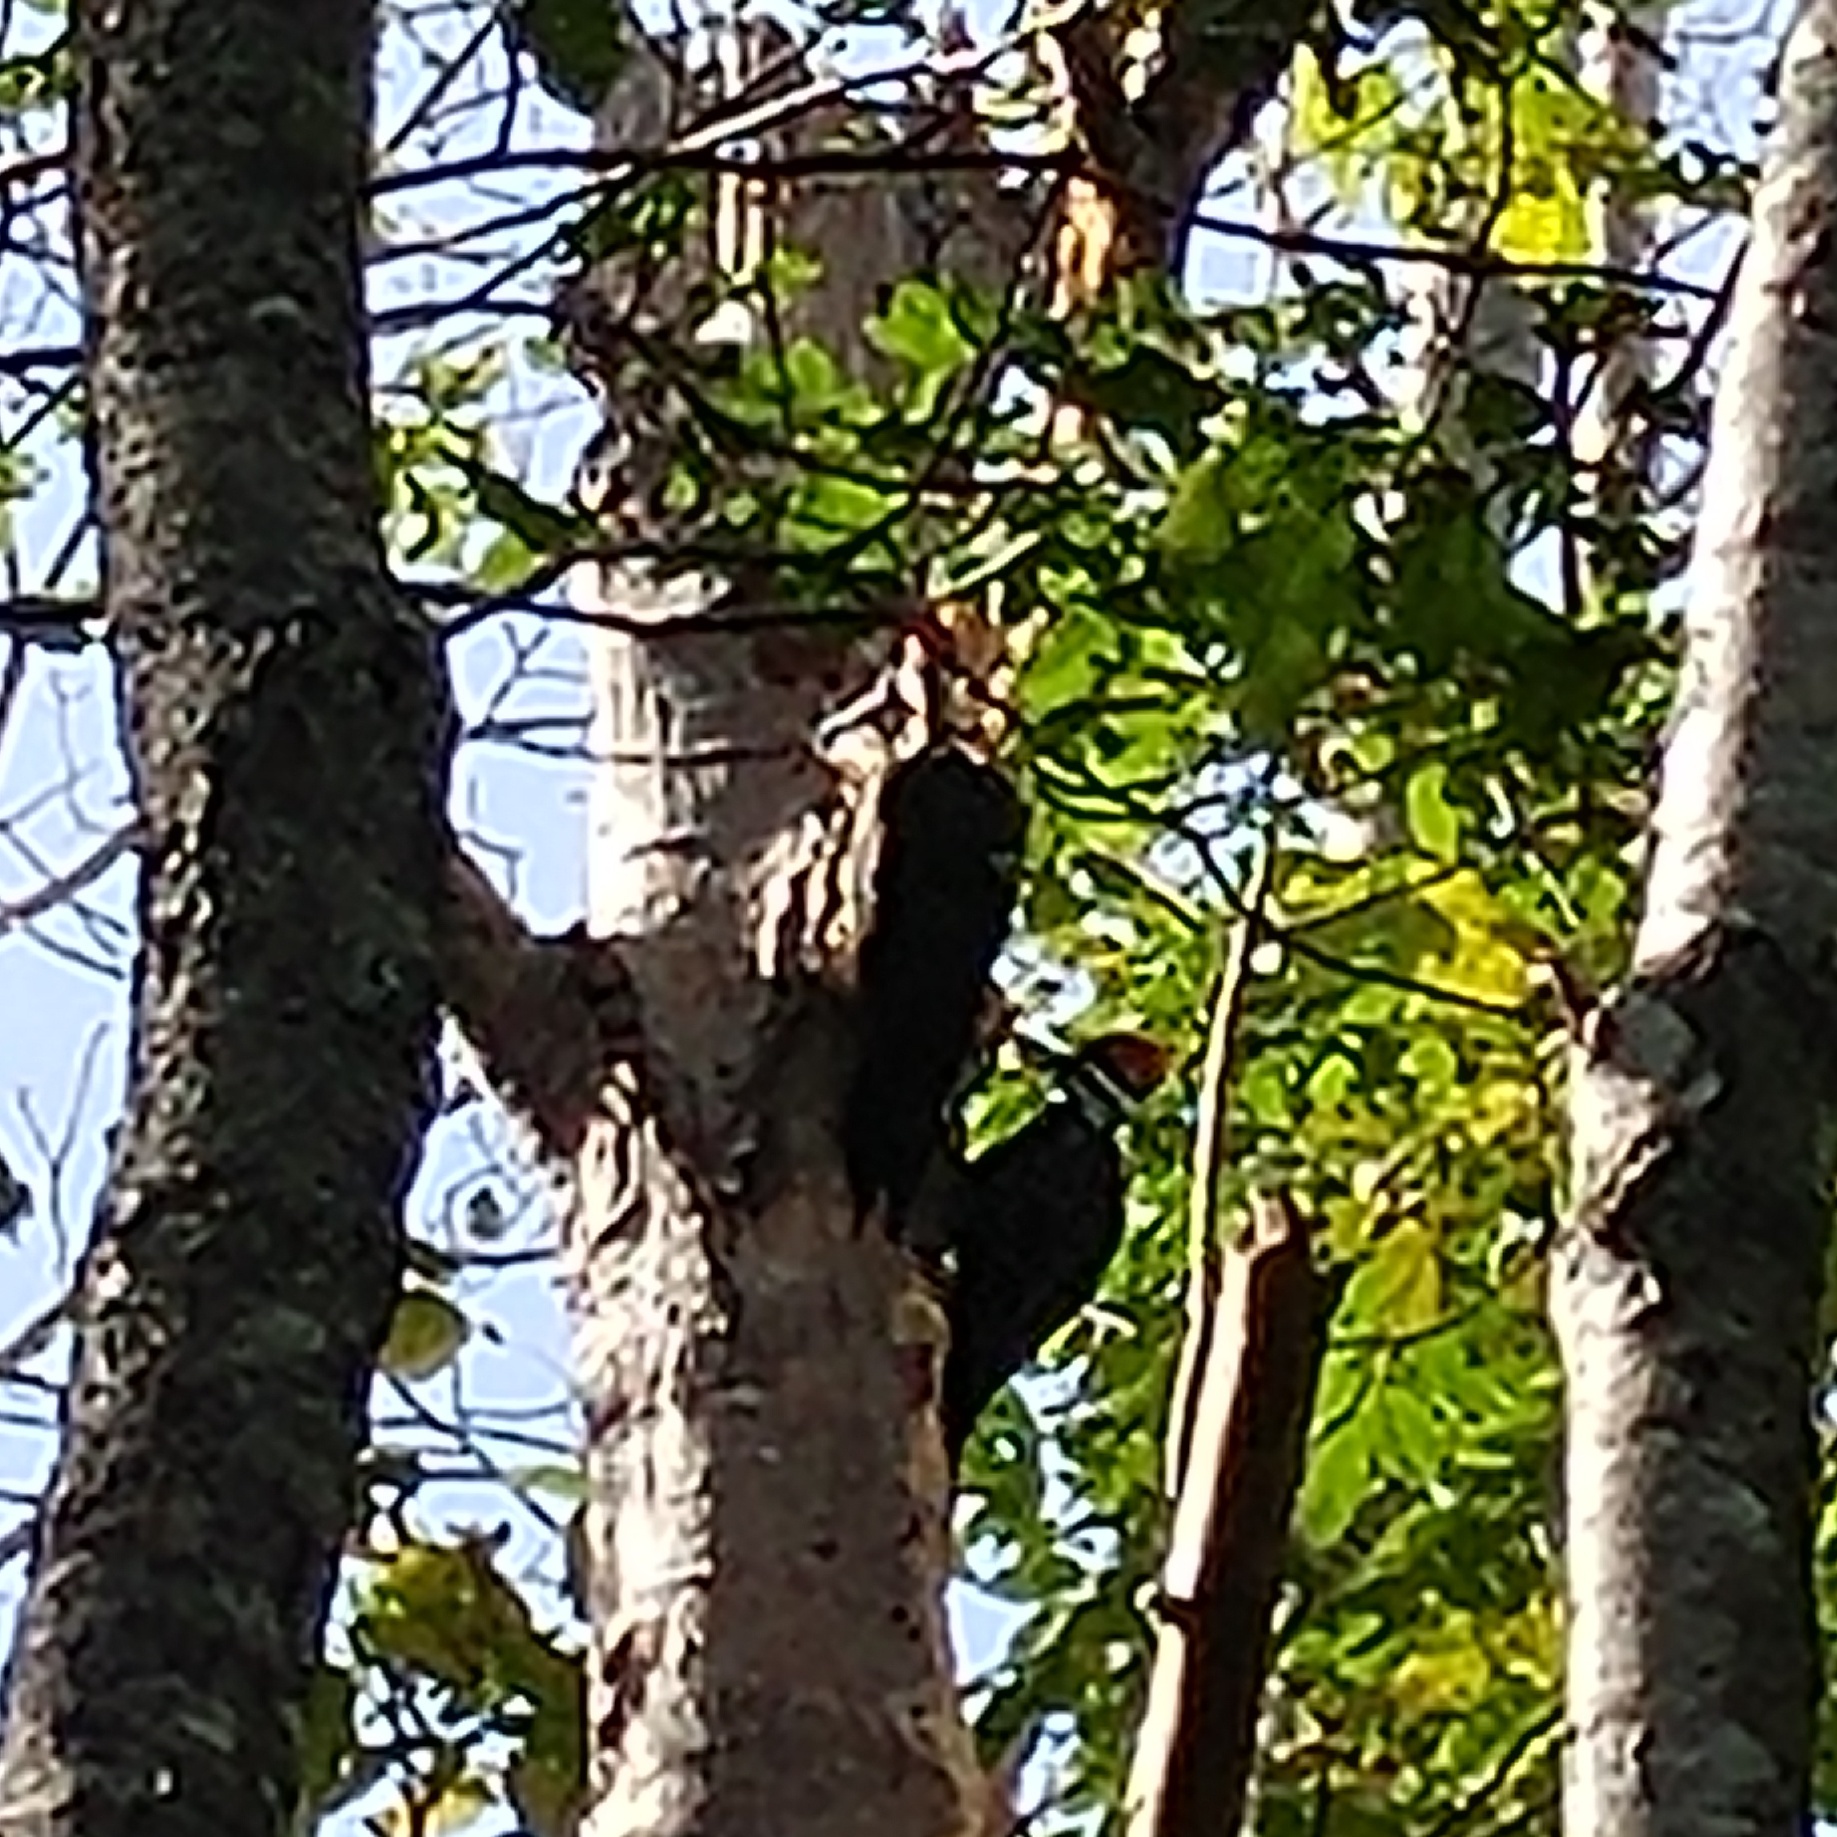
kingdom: Animalia
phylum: Chordata
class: Aves
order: Piciformes
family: Picidae
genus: Dryocopus
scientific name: Dryocopus pileatus
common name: Pileated woodpecker
